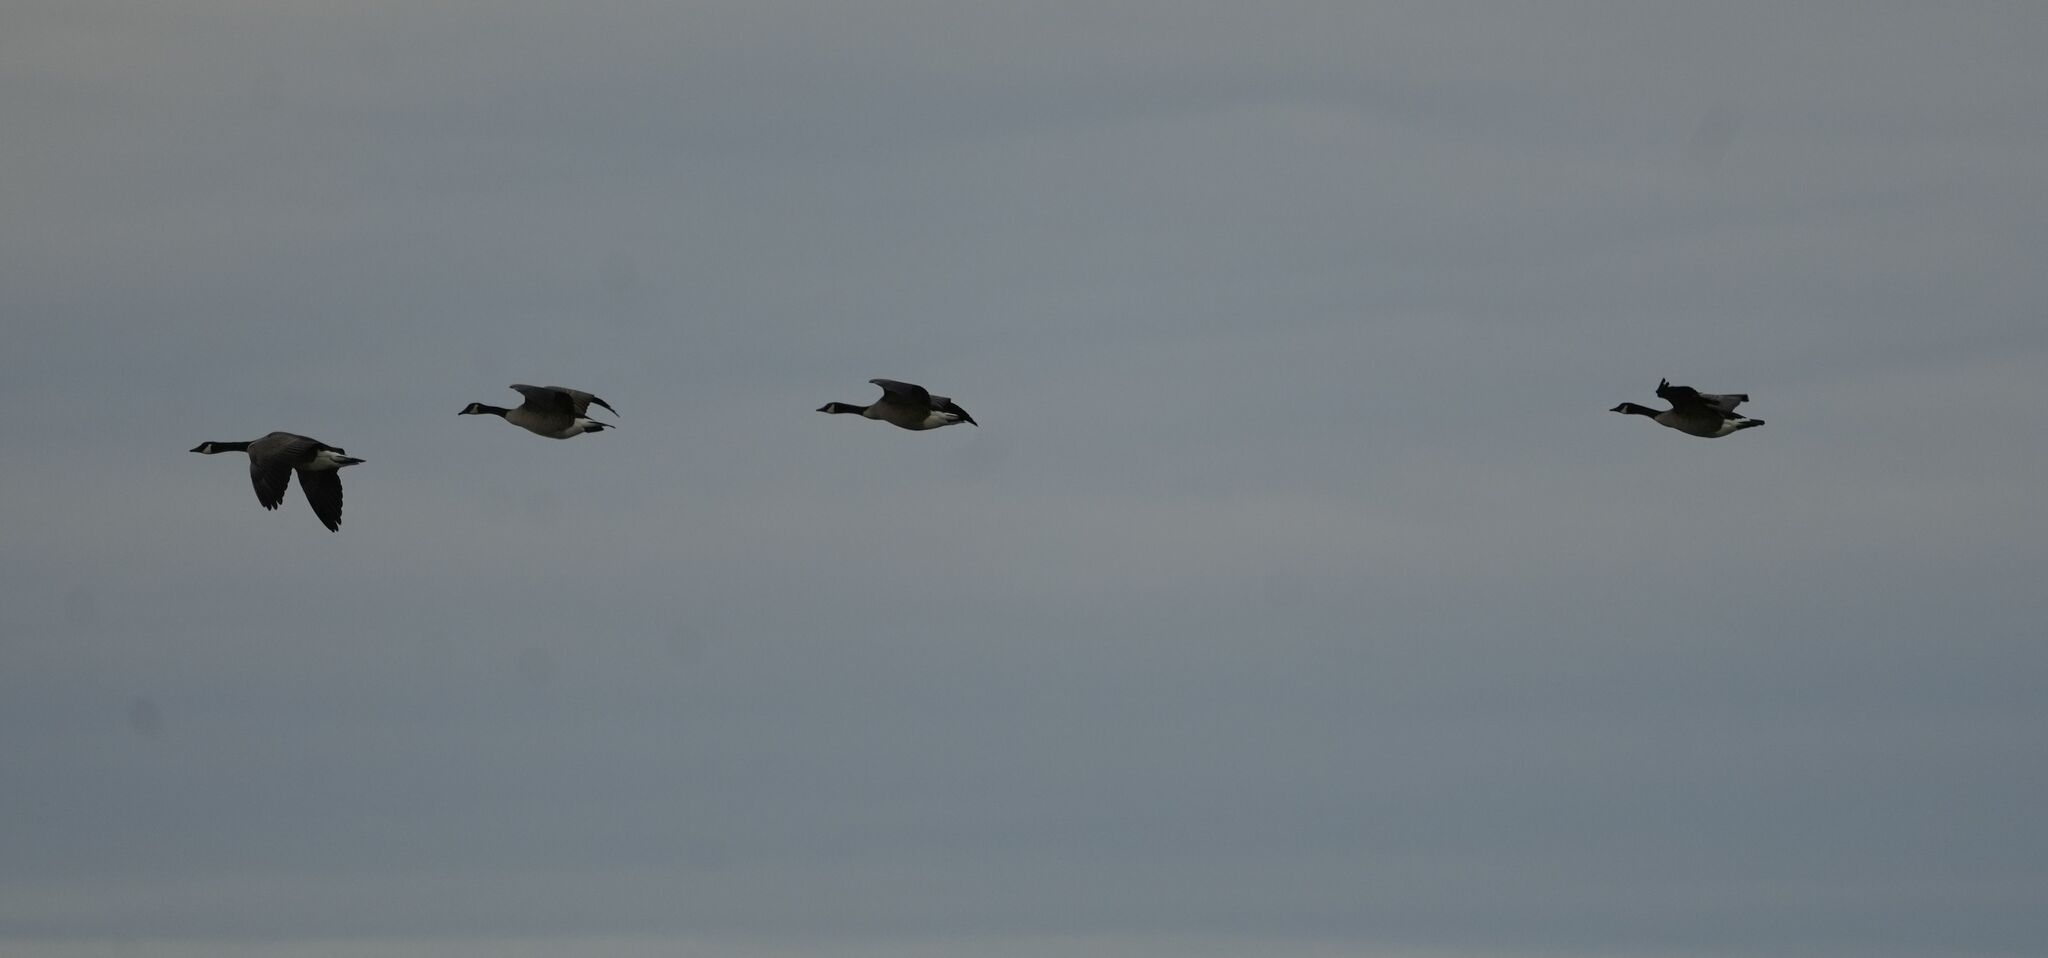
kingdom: Animalia
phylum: Chordata
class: Aves
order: Anseriformes
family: Anatidae
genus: Branta
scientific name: Branta canadensis
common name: Canada goose
